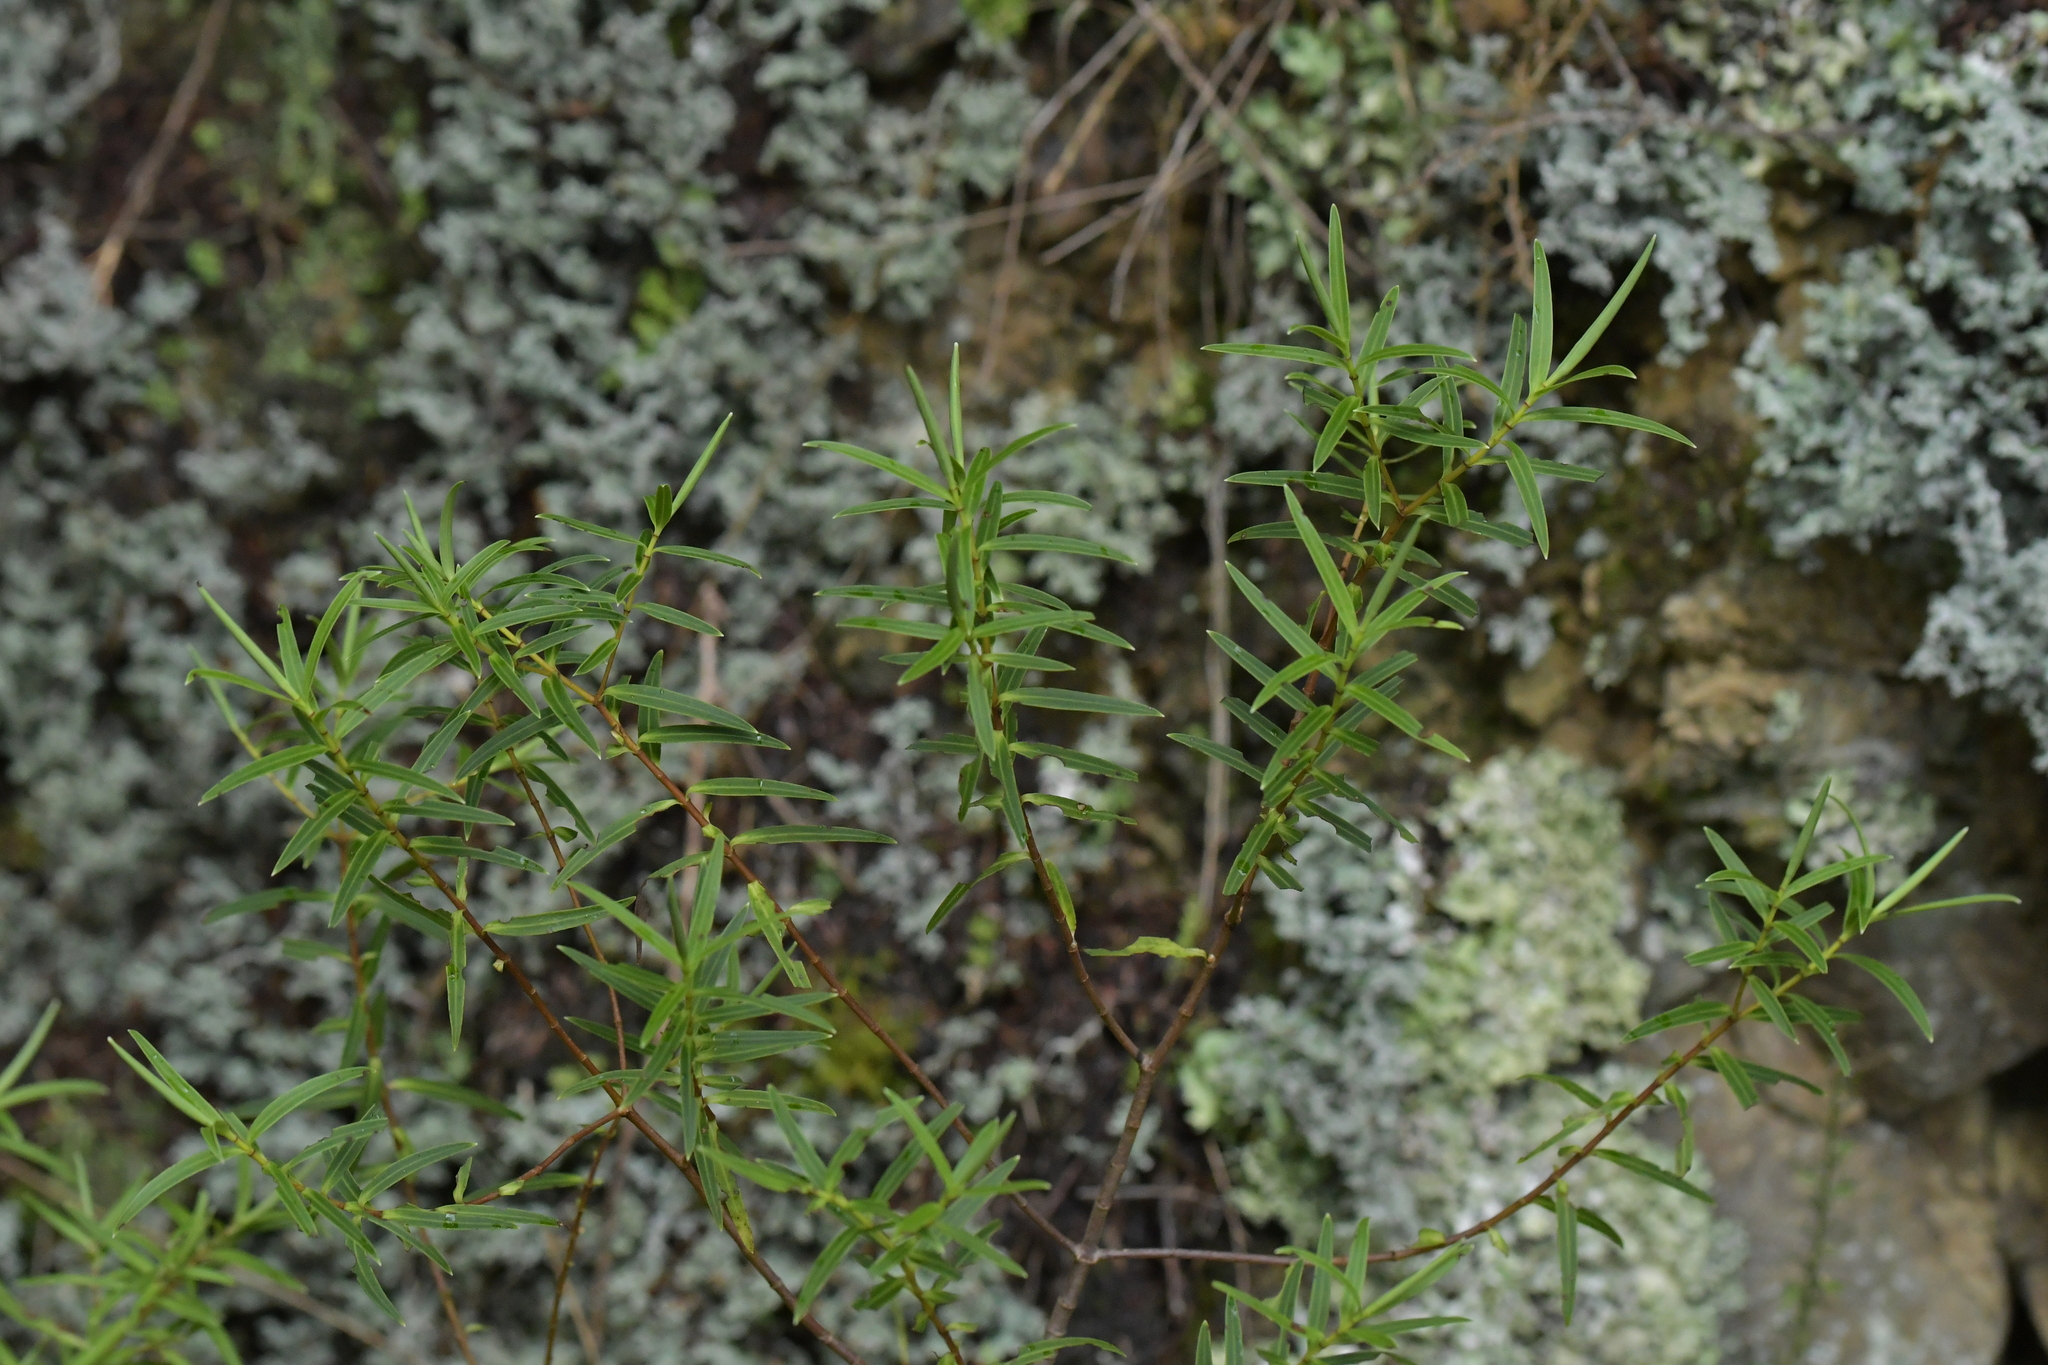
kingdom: Plantae
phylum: Tracheophyta
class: Magnoliopsida
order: Lamiales
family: Plantaginaceae
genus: Veronica
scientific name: Veronica parviflora
